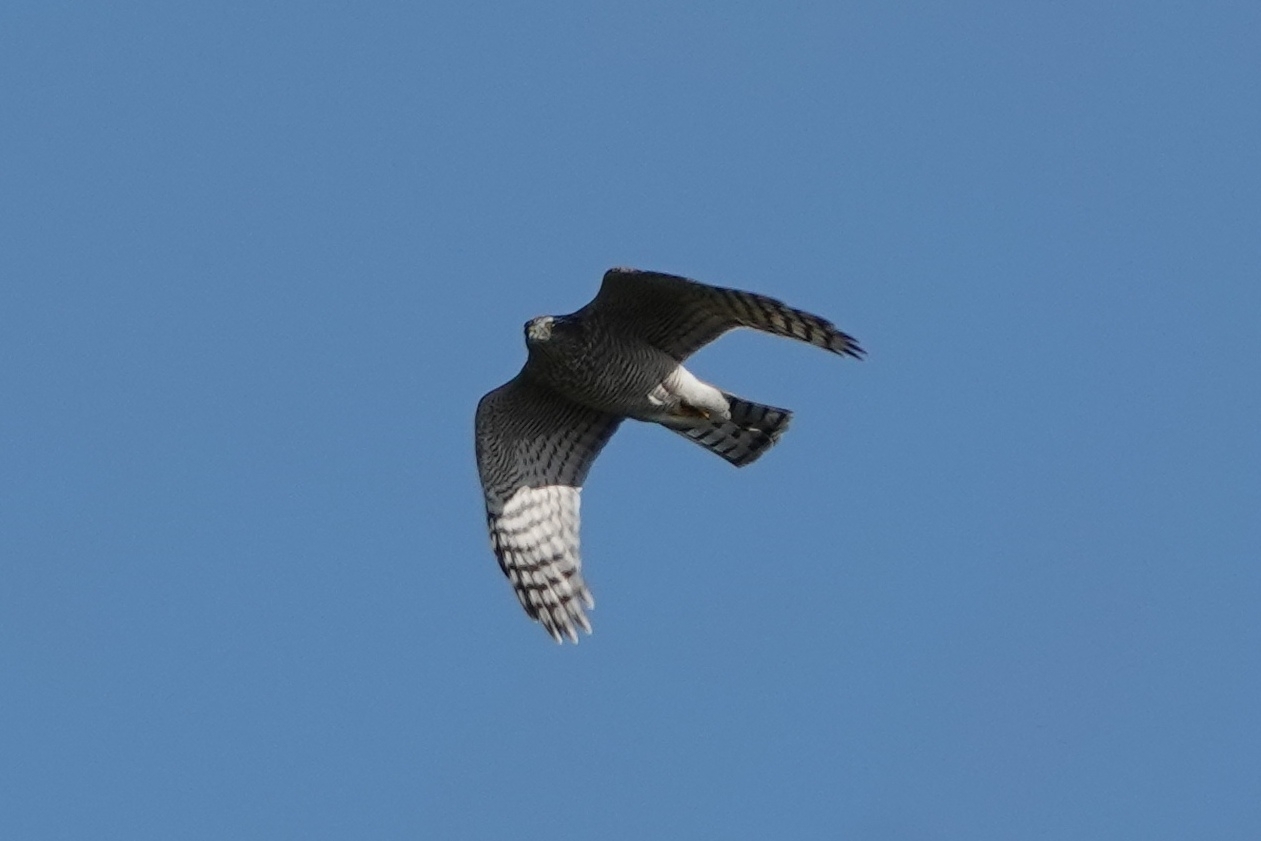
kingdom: Animalia
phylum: Chordata
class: Aves
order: Accipitriformes
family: Accipitridae
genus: Accipiter
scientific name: Accipiter nisus
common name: Eurasian sparrowhawk
